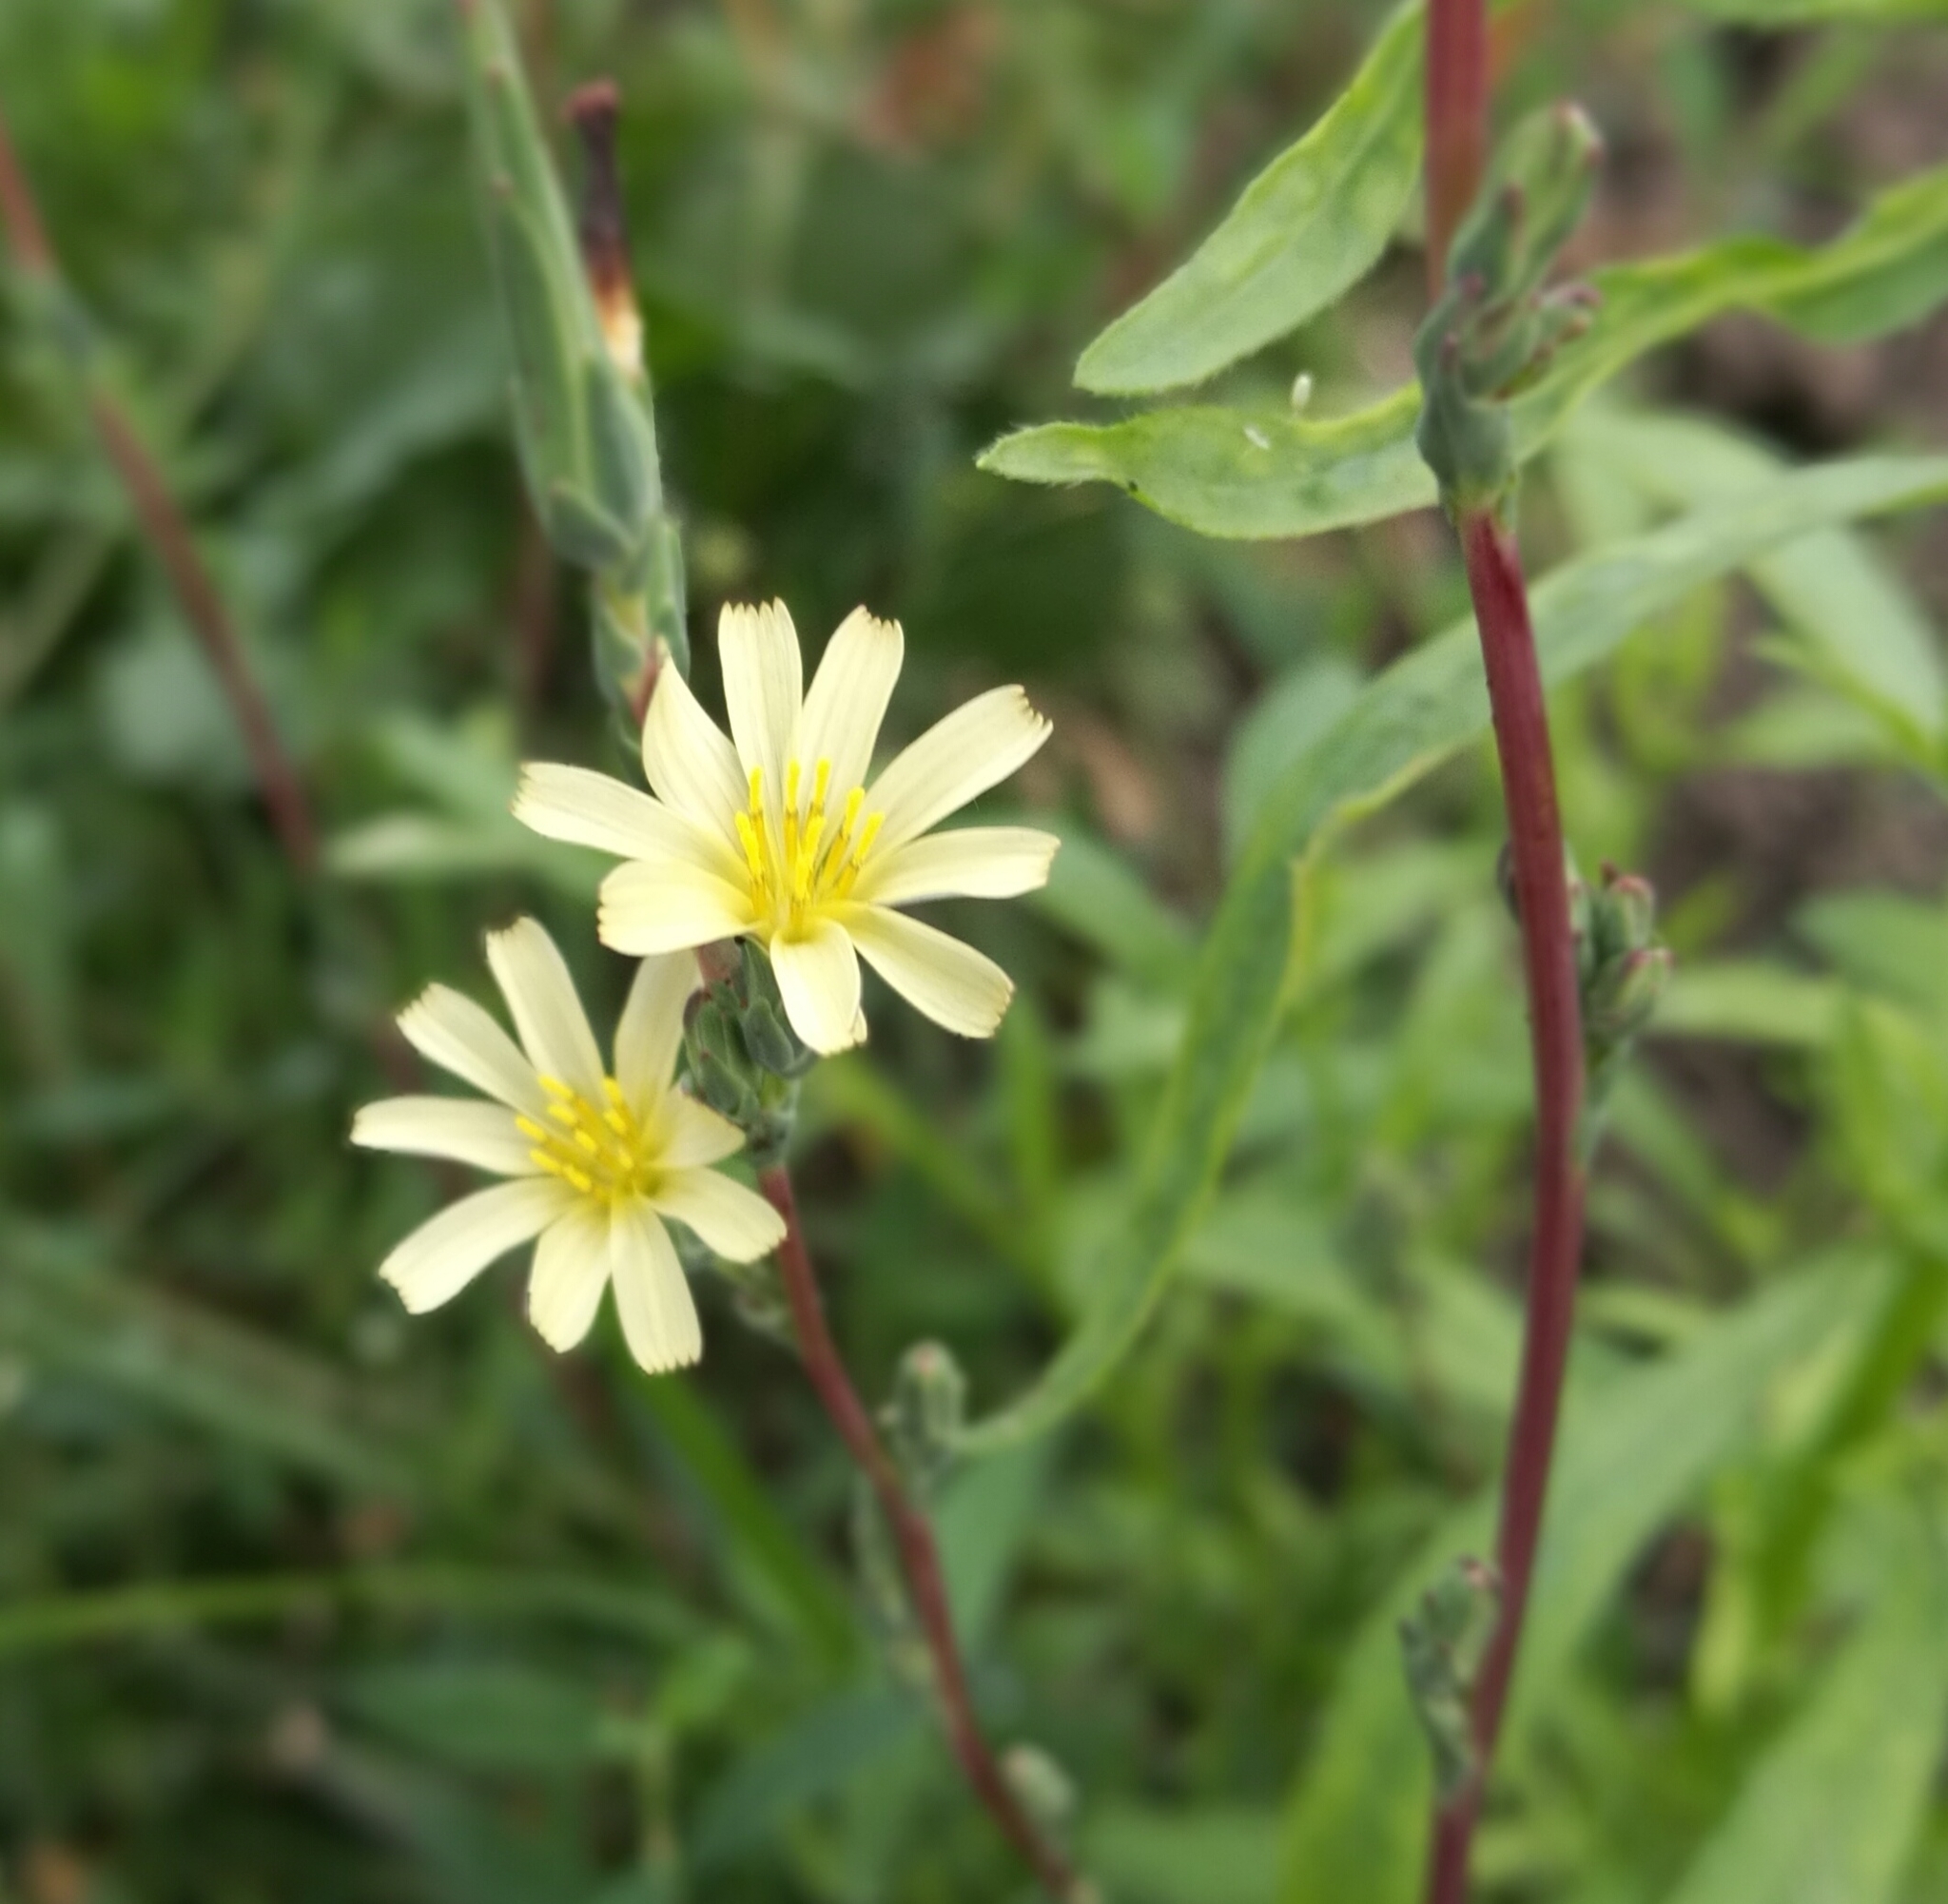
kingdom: Plantae
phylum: Tracheophyta
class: Magnoliopsida
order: Asterales
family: Asteraceae
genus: Lactuca
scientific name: Lactuca saligna
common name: Wild lettuce
